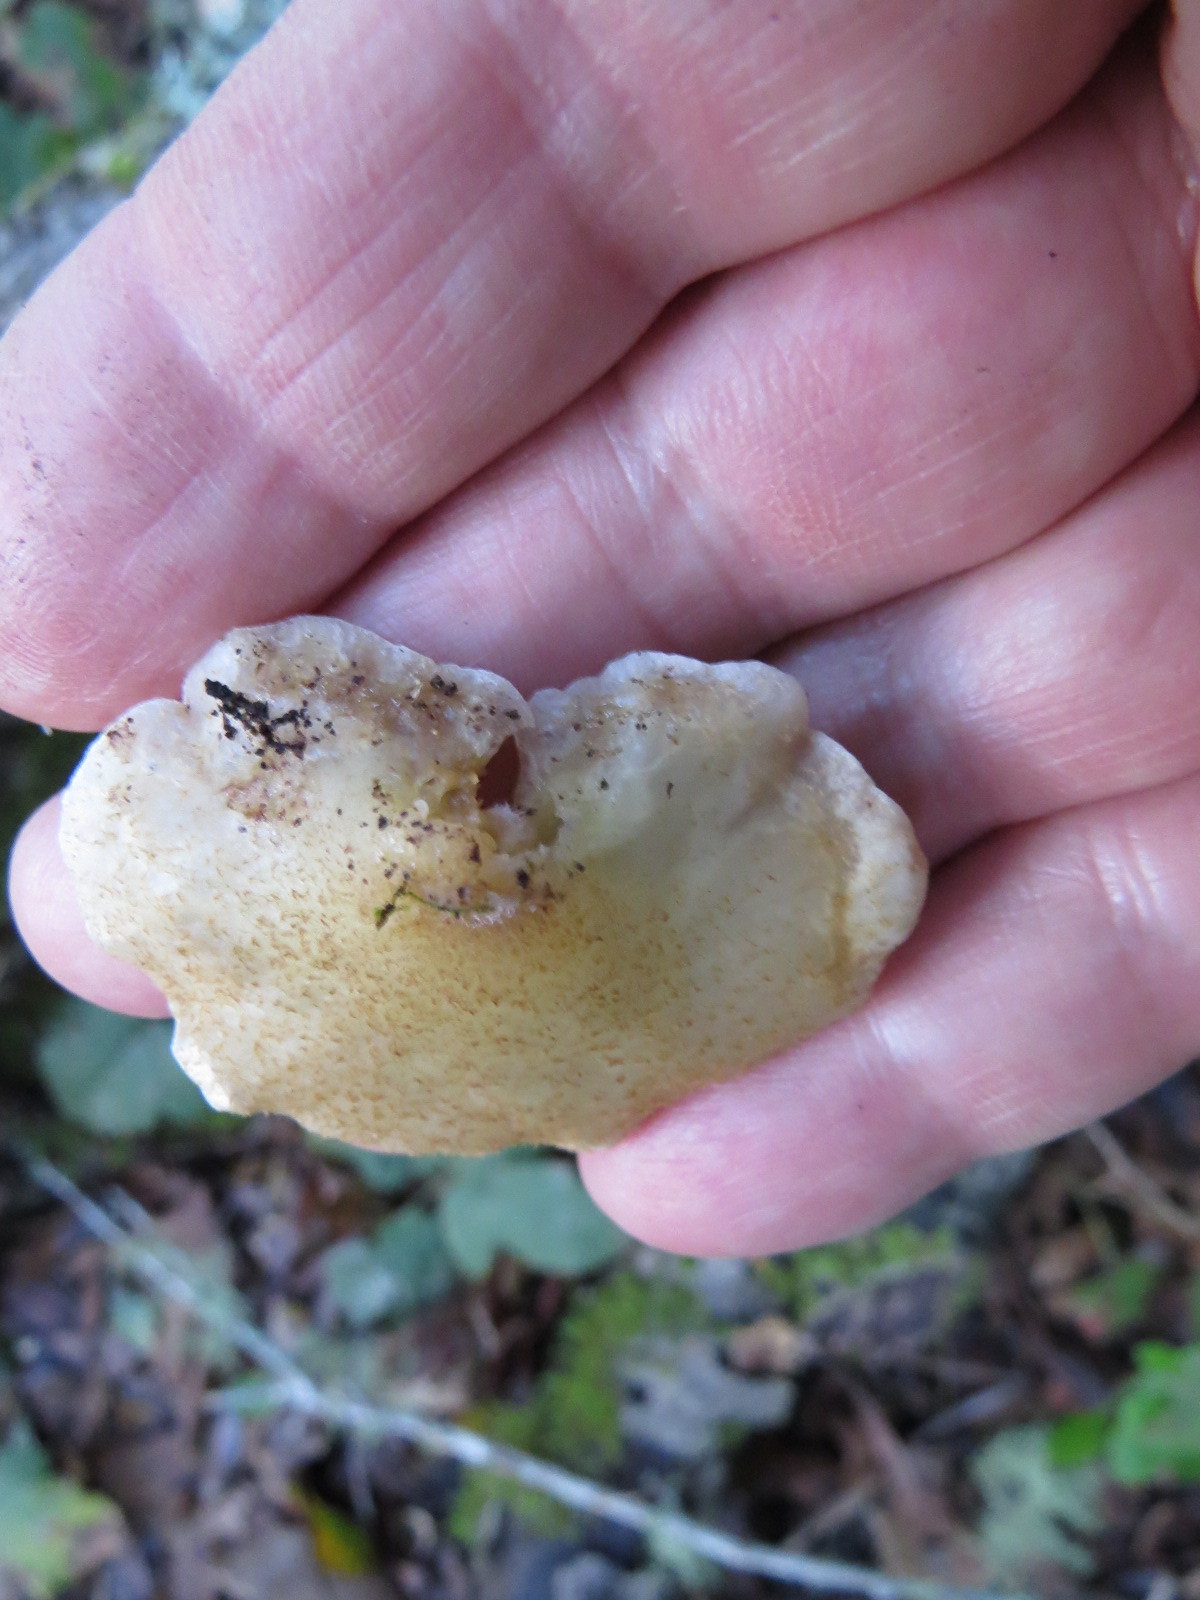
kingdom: Fungi
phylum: Basidiomycota
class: Agaricomycetes
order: Agaricales
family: Crepidotaceae
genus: Crepidotus
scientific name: Crepidotus mollis
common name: Peeling oysterling
